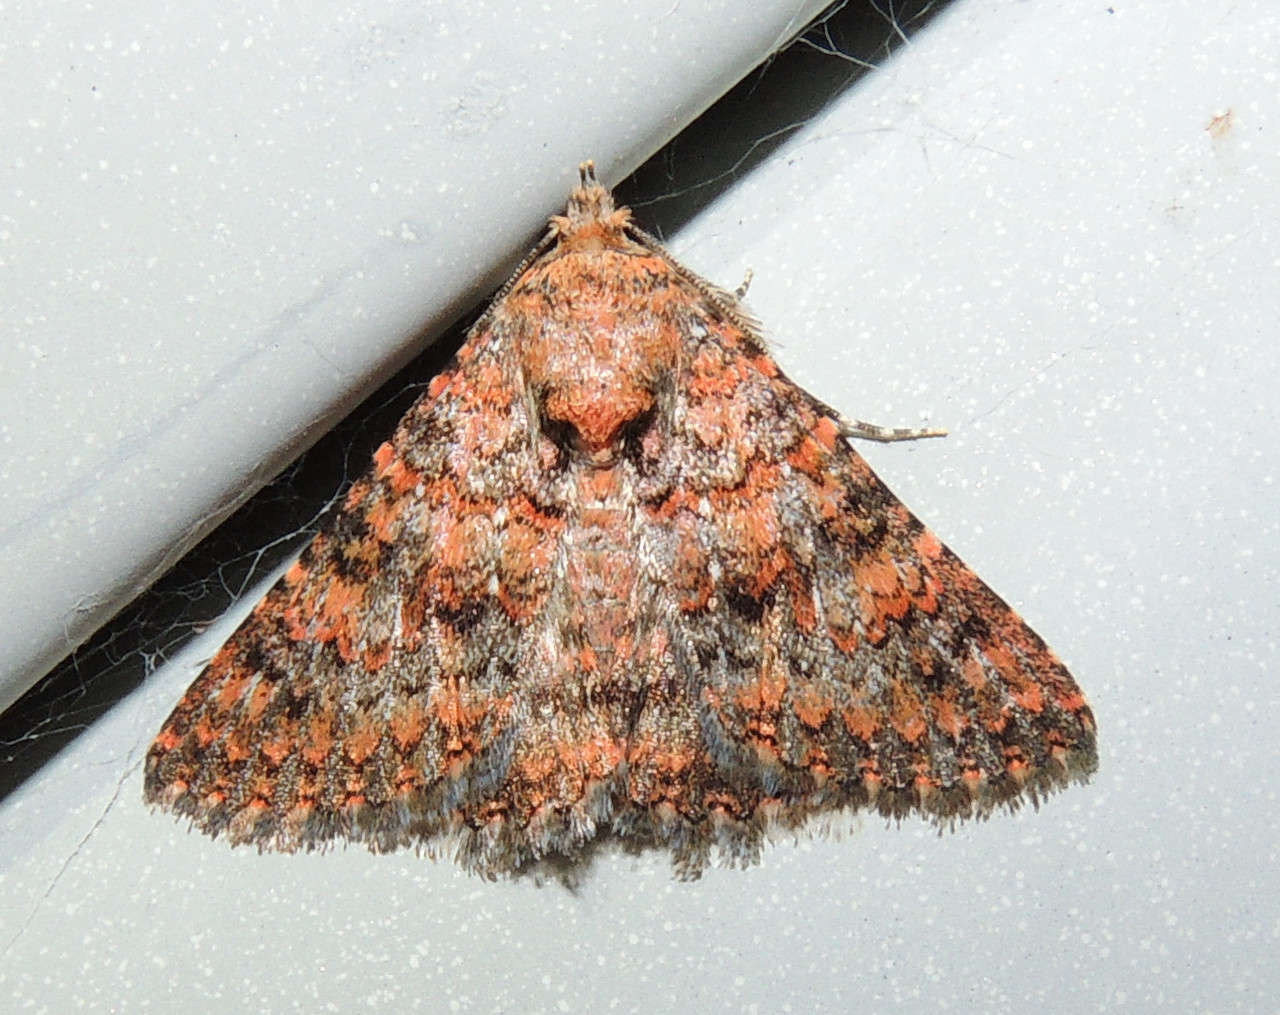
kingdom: Animalia
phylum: Arthropoda
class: Insecta
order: Lepidoptera
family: Erebidae
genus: Praxis
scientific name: Praxis marmarinopa
